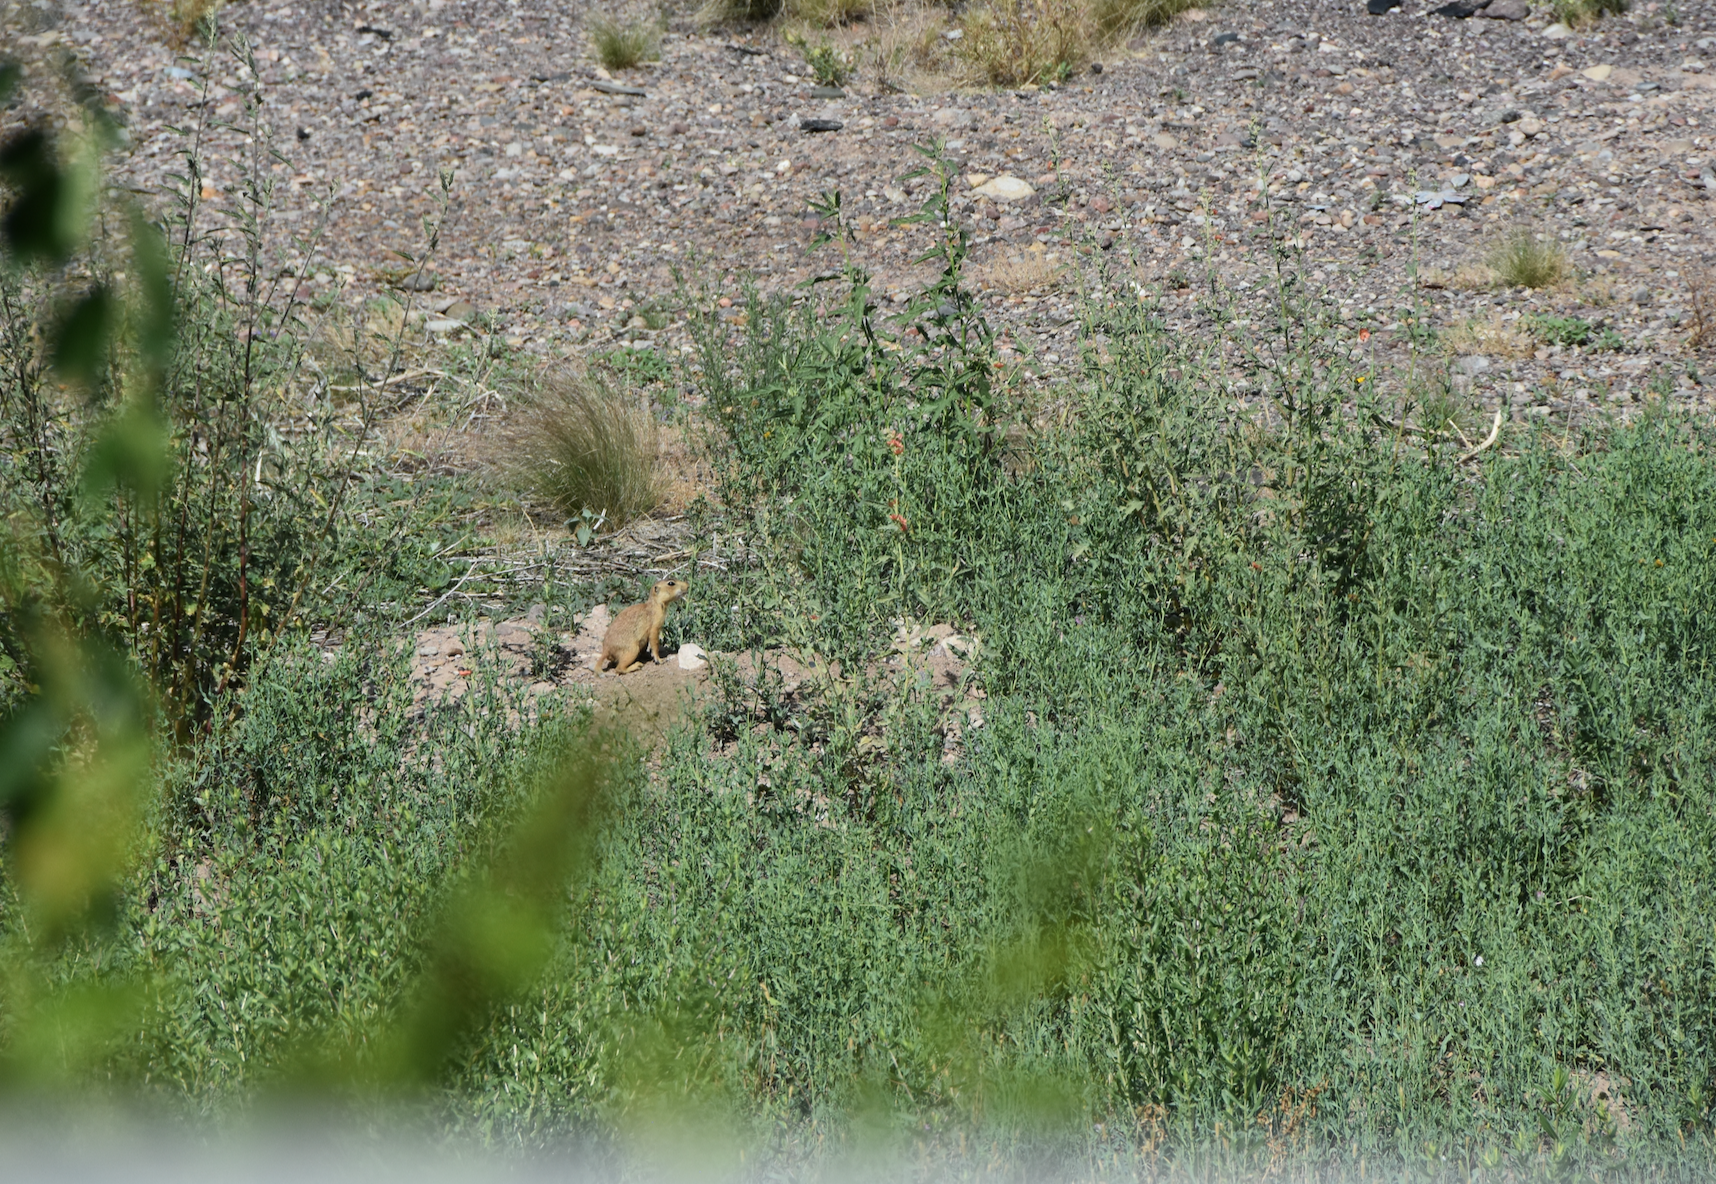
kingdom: Animalia
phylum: Chordata
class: Mammalia
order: Rodentia
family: Sciuridae
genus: Cynomys
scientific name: Cynomys gunnisoni
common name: Gunnison's prairie dog
